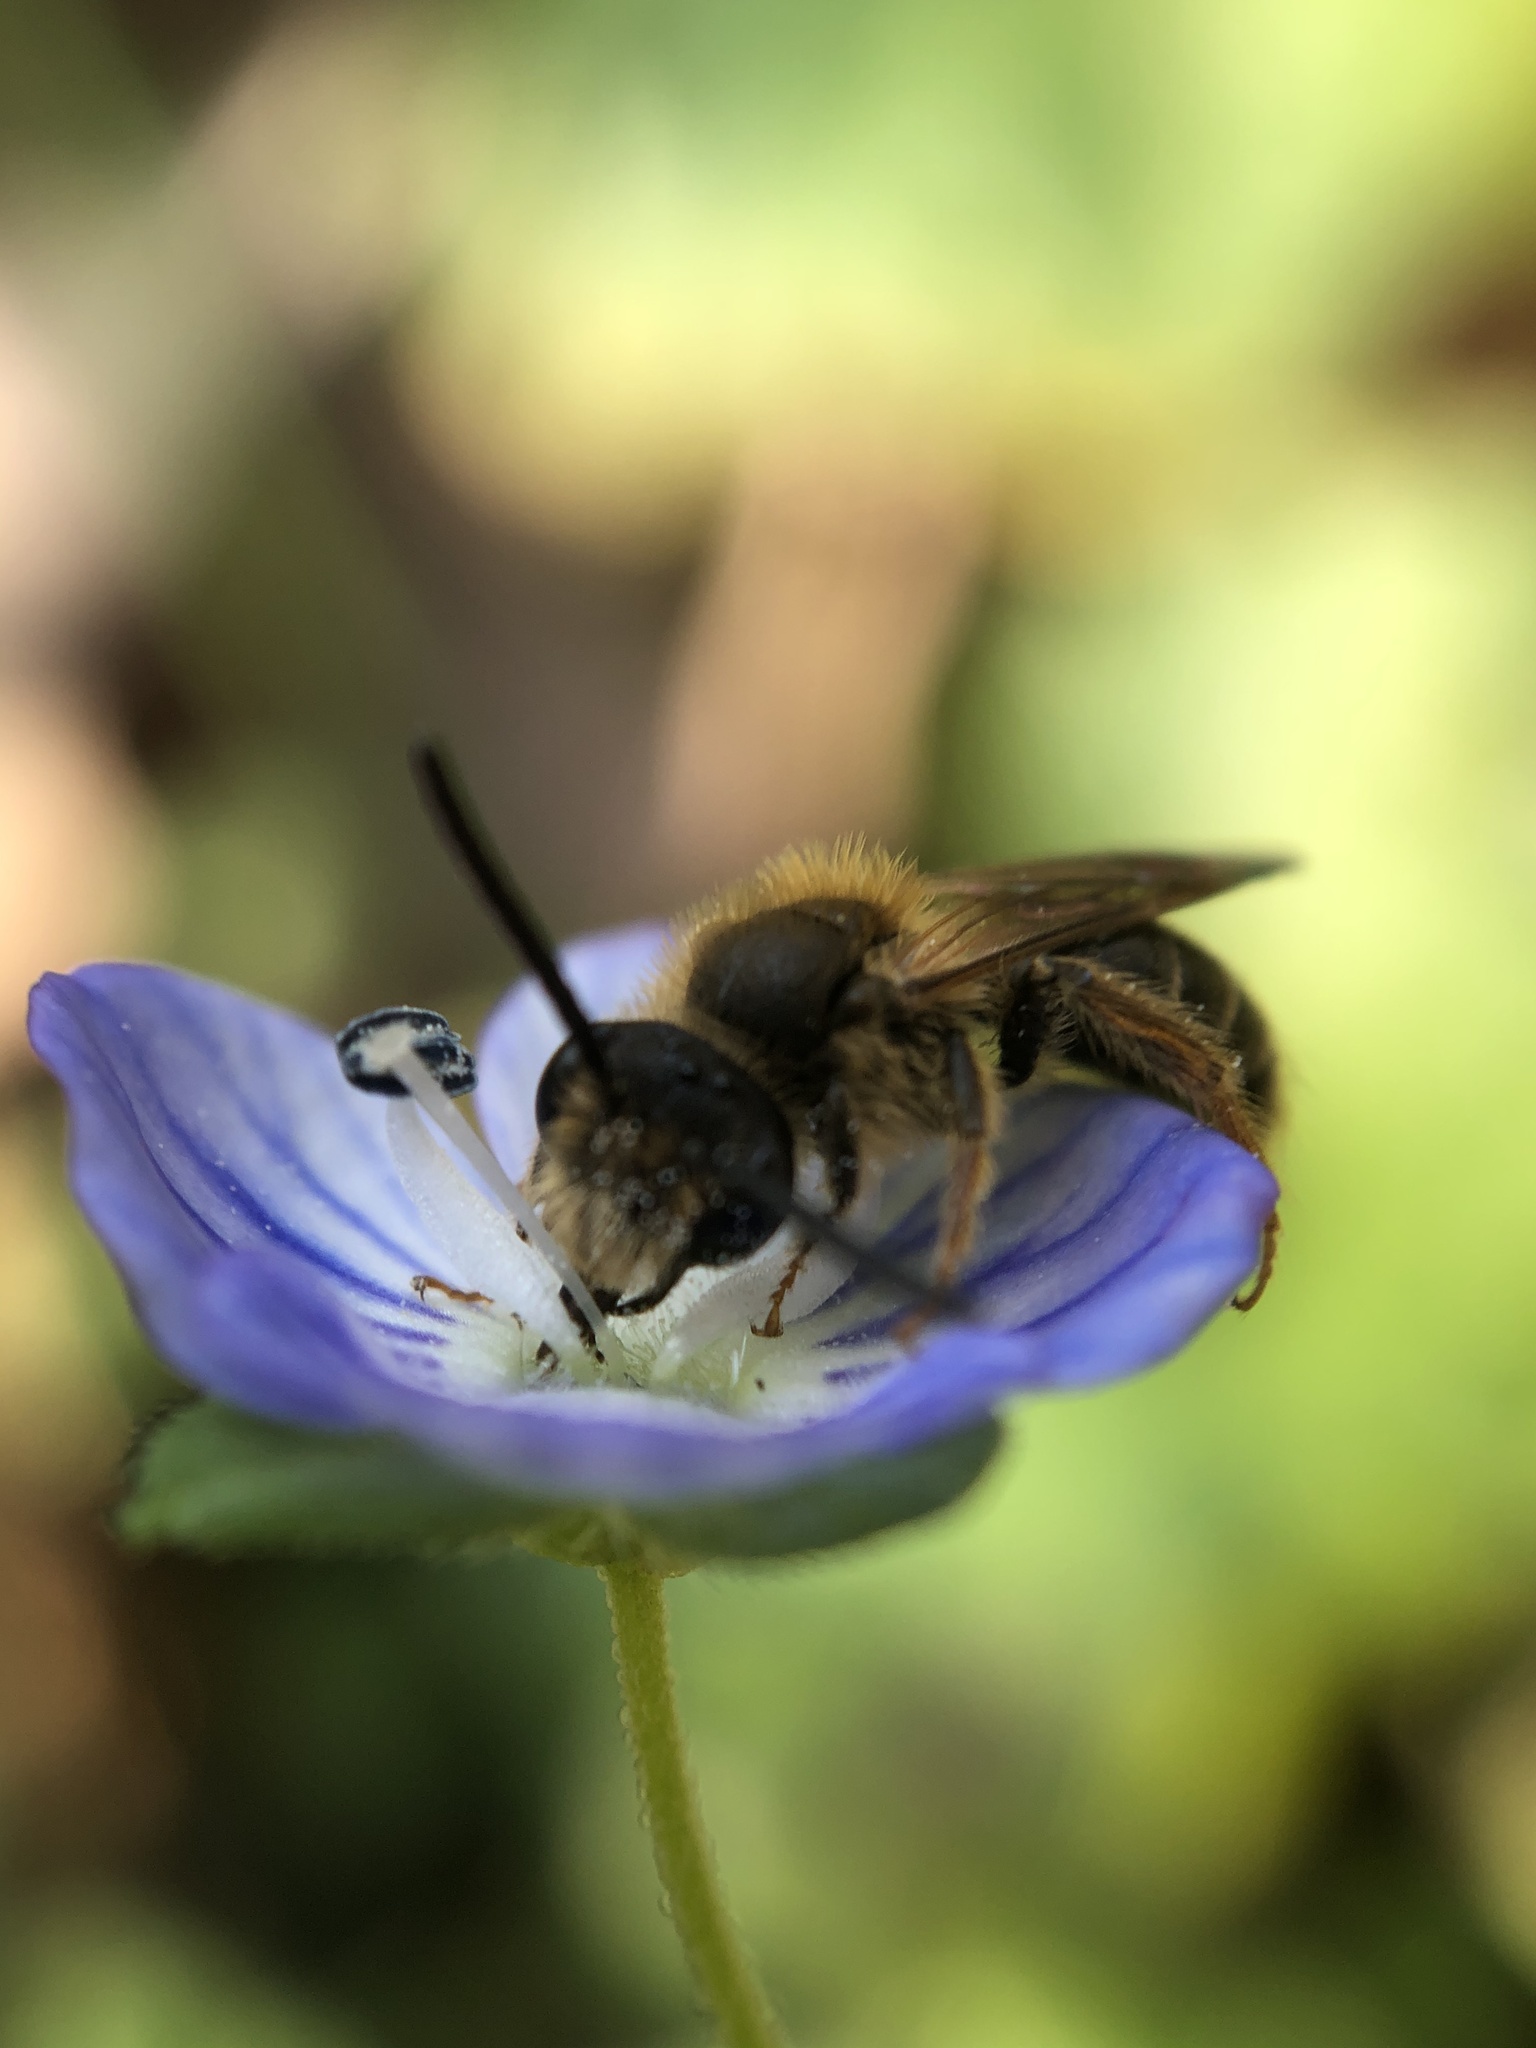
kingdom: Animalia
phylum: Arthropoda
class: Insecta
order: Hymenoptera
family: Andrenidae
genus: Andrena
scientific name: Andrena imitatrix
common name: Imitator miner bee
